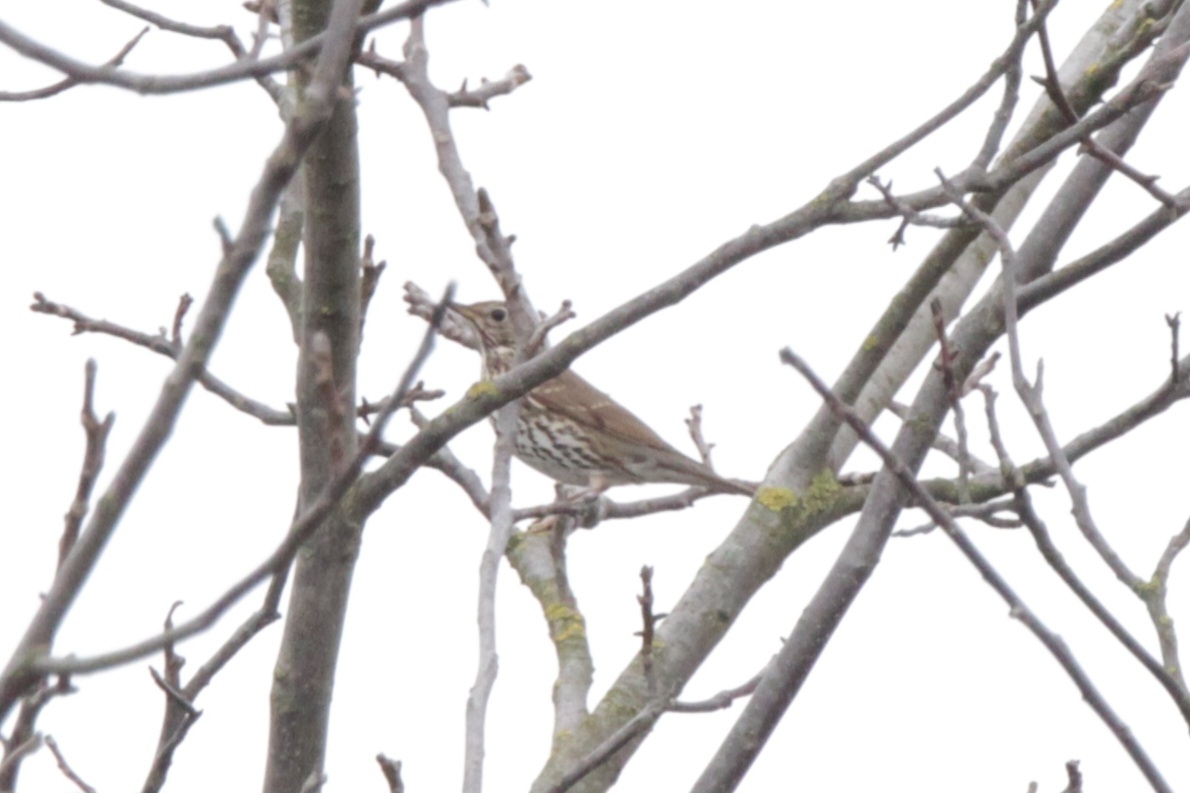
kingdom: Animalia
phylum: Chordata
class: Aves
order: Passeriformes
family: Turdidae
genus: Turdus
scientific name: Turdus philomelos
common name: Song thrush
